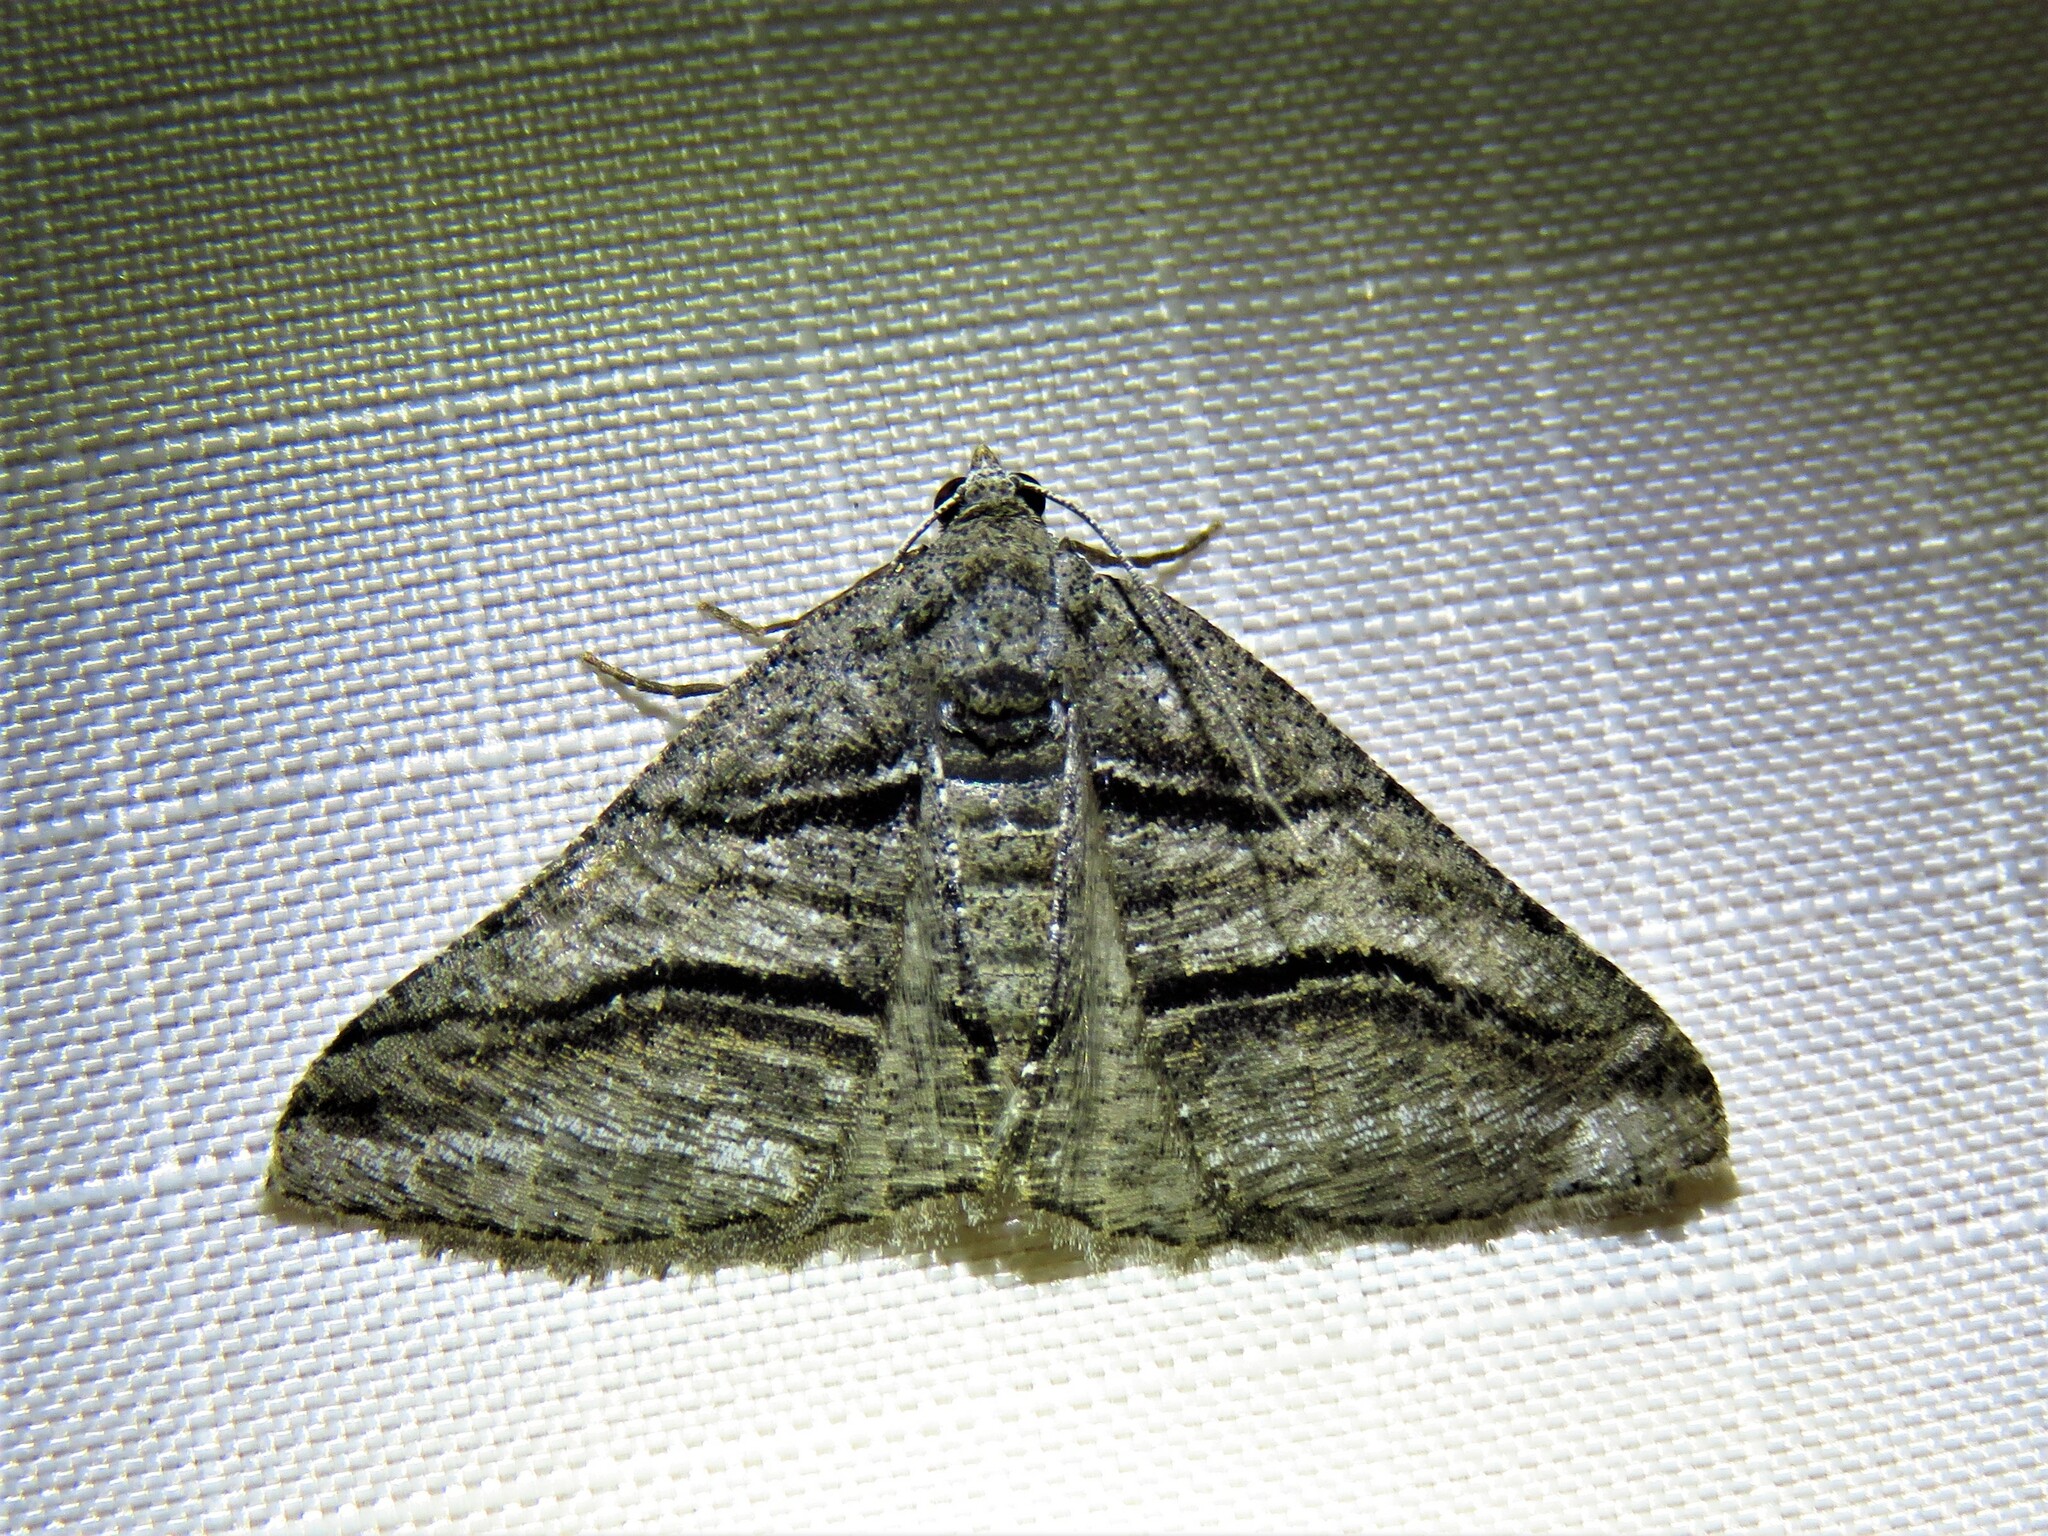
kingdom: Animalia
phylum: Arthropoda
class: Insecta
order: Lepidoptera
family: Geometridae
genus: Digrammia
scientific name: Digrammia atrofasciata
